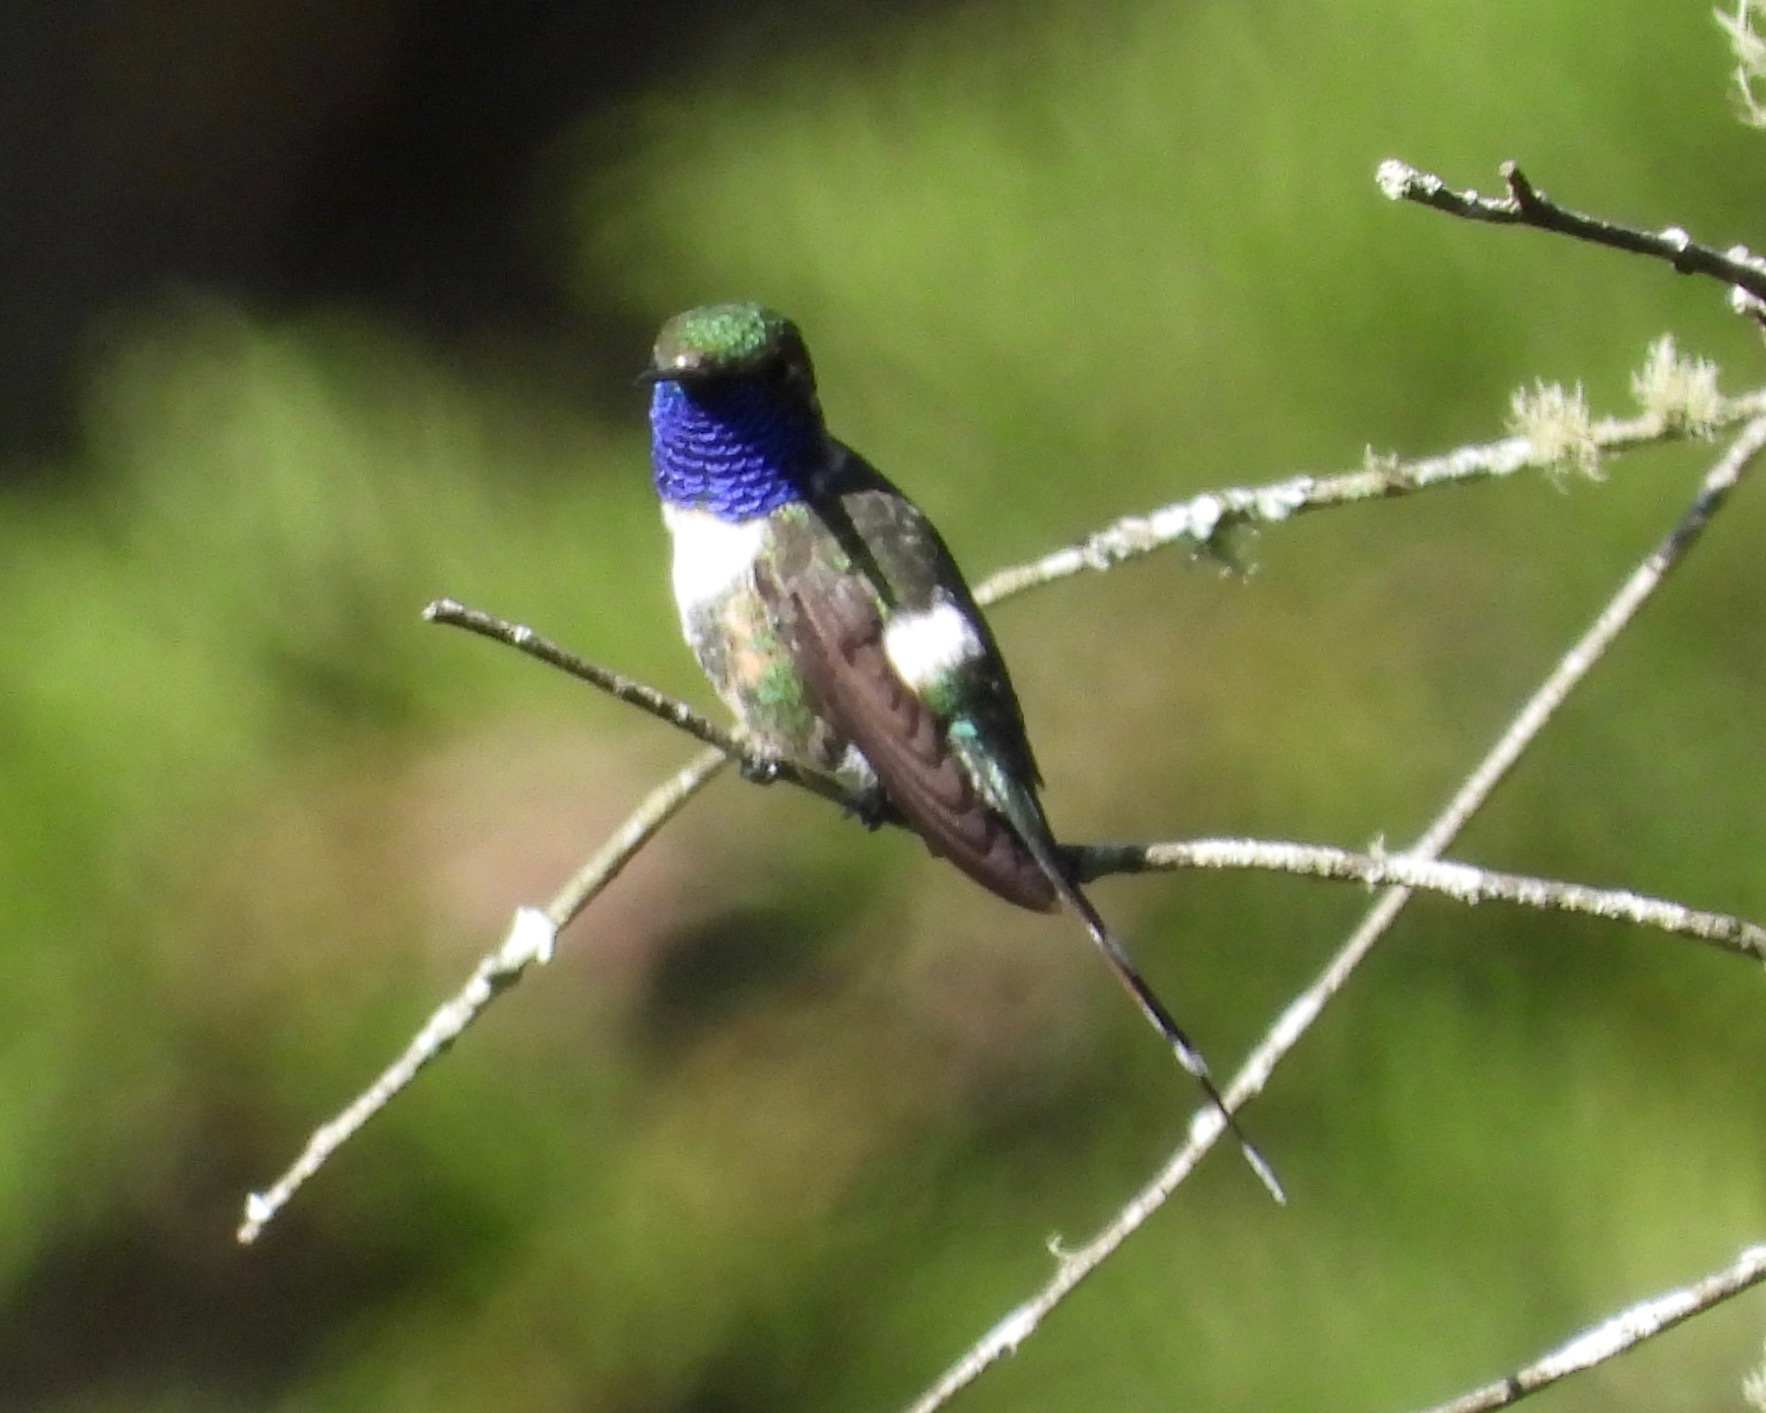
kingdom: Animalia
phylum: Chordata
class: Aves
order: Apodiformes
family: Trochilidae
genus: Tilmatura
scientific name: Tilmatura dupontii
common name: Sparkling-tailed woodstar
